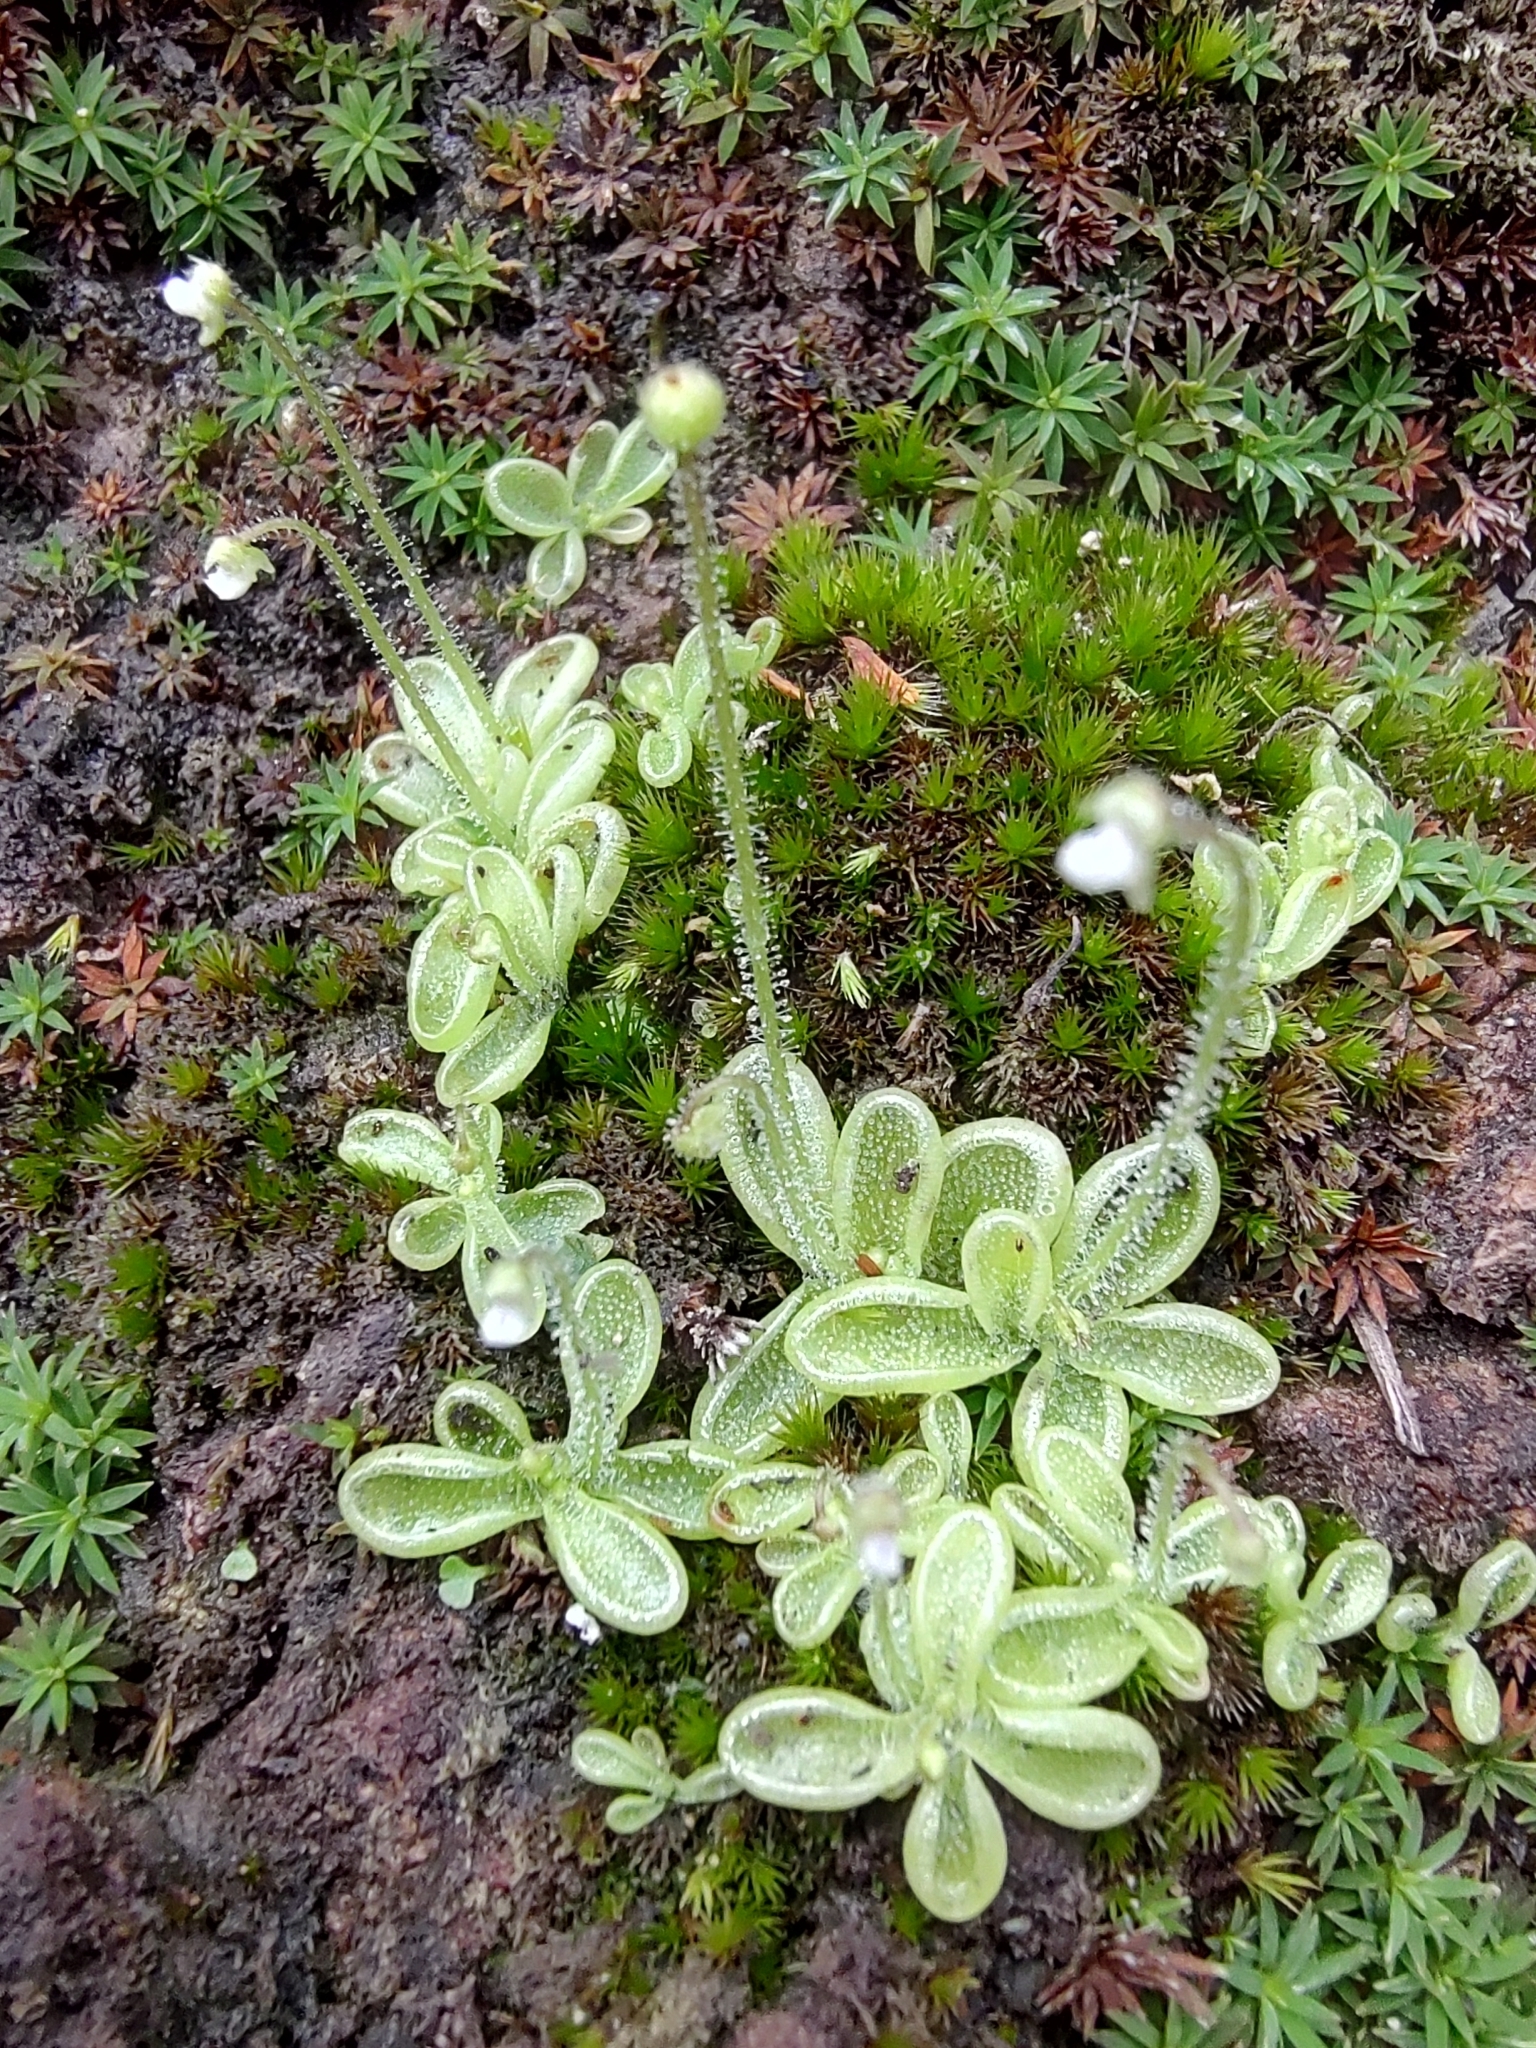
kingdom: Plantae
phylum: Tracheophyta
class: Magnoliopsida
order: Lamiales
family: Lentibulariaceae
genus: Pinguicula
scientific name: Pinguicula crenatiloba
